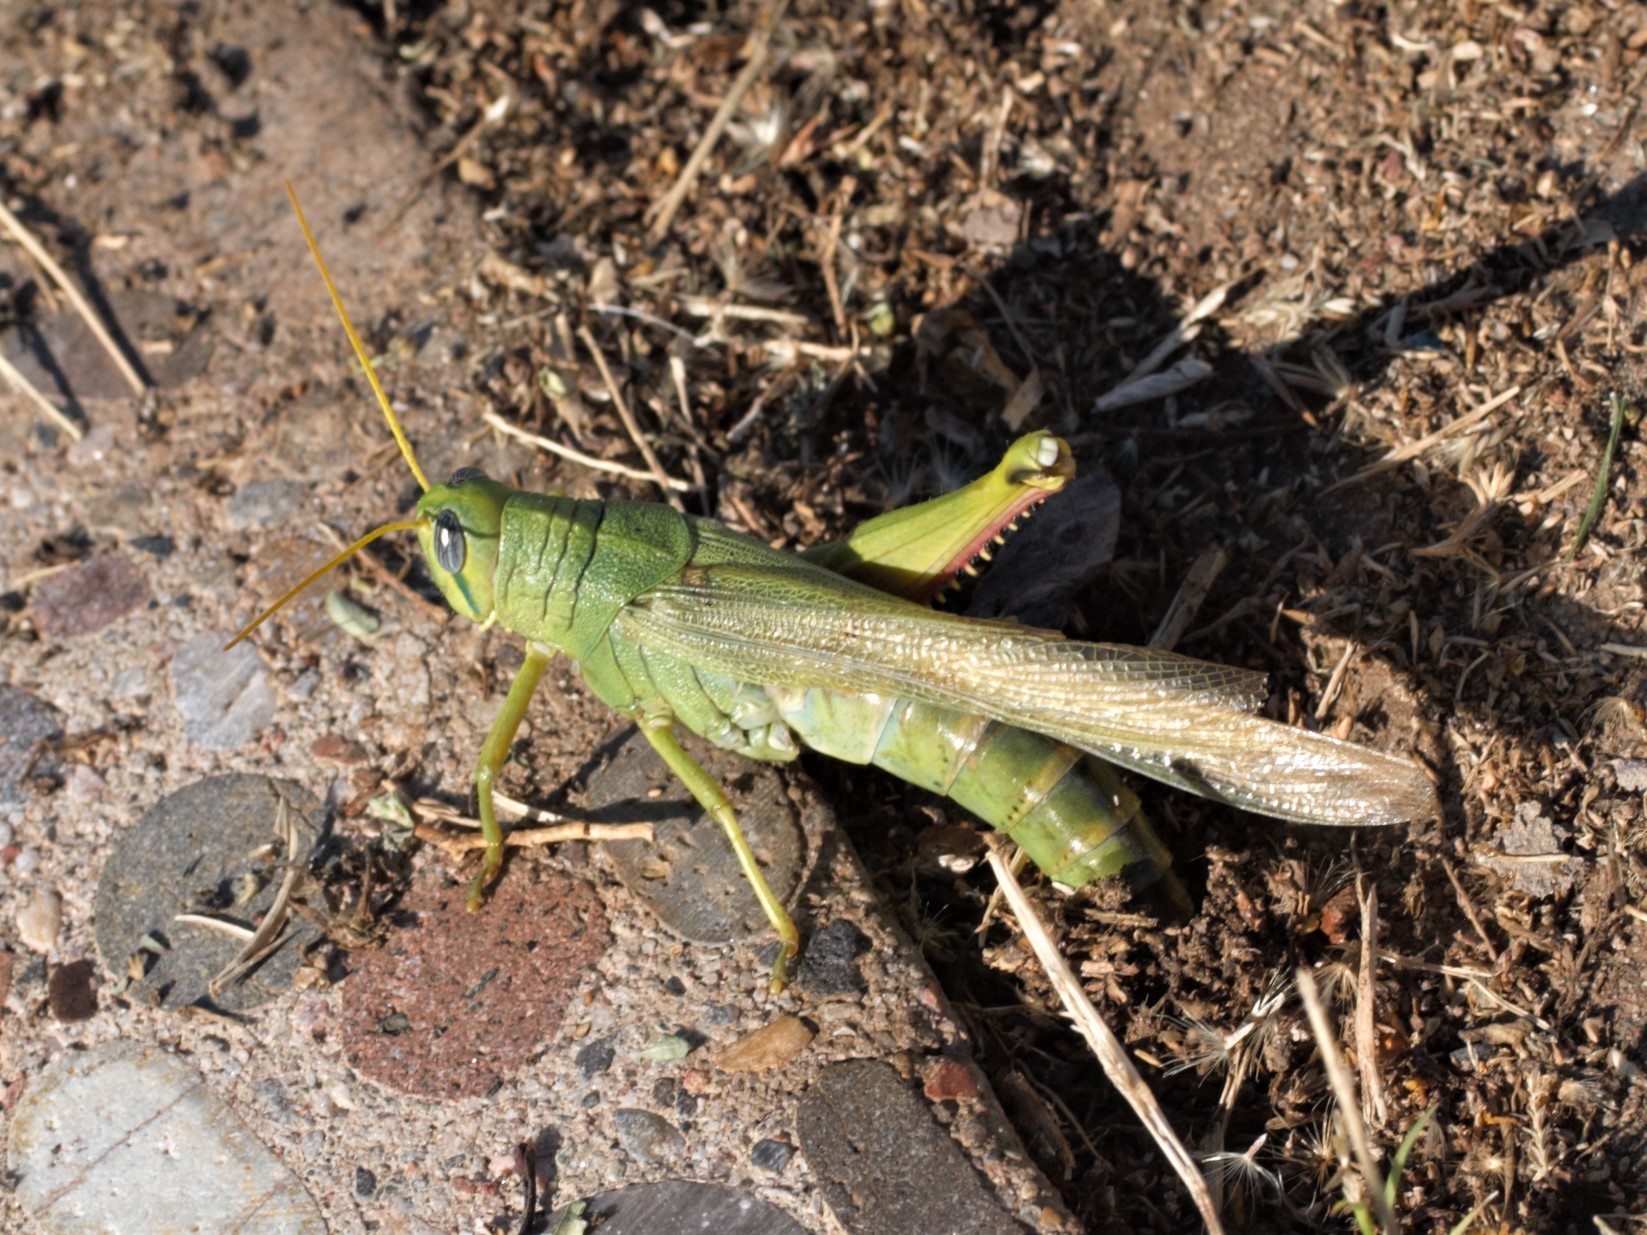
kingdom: Animalia
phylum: Arthropoda
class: Insecta
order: Orthoptera
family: Acrididae
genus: Schistocerca
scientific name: Schistocerca shoshone
